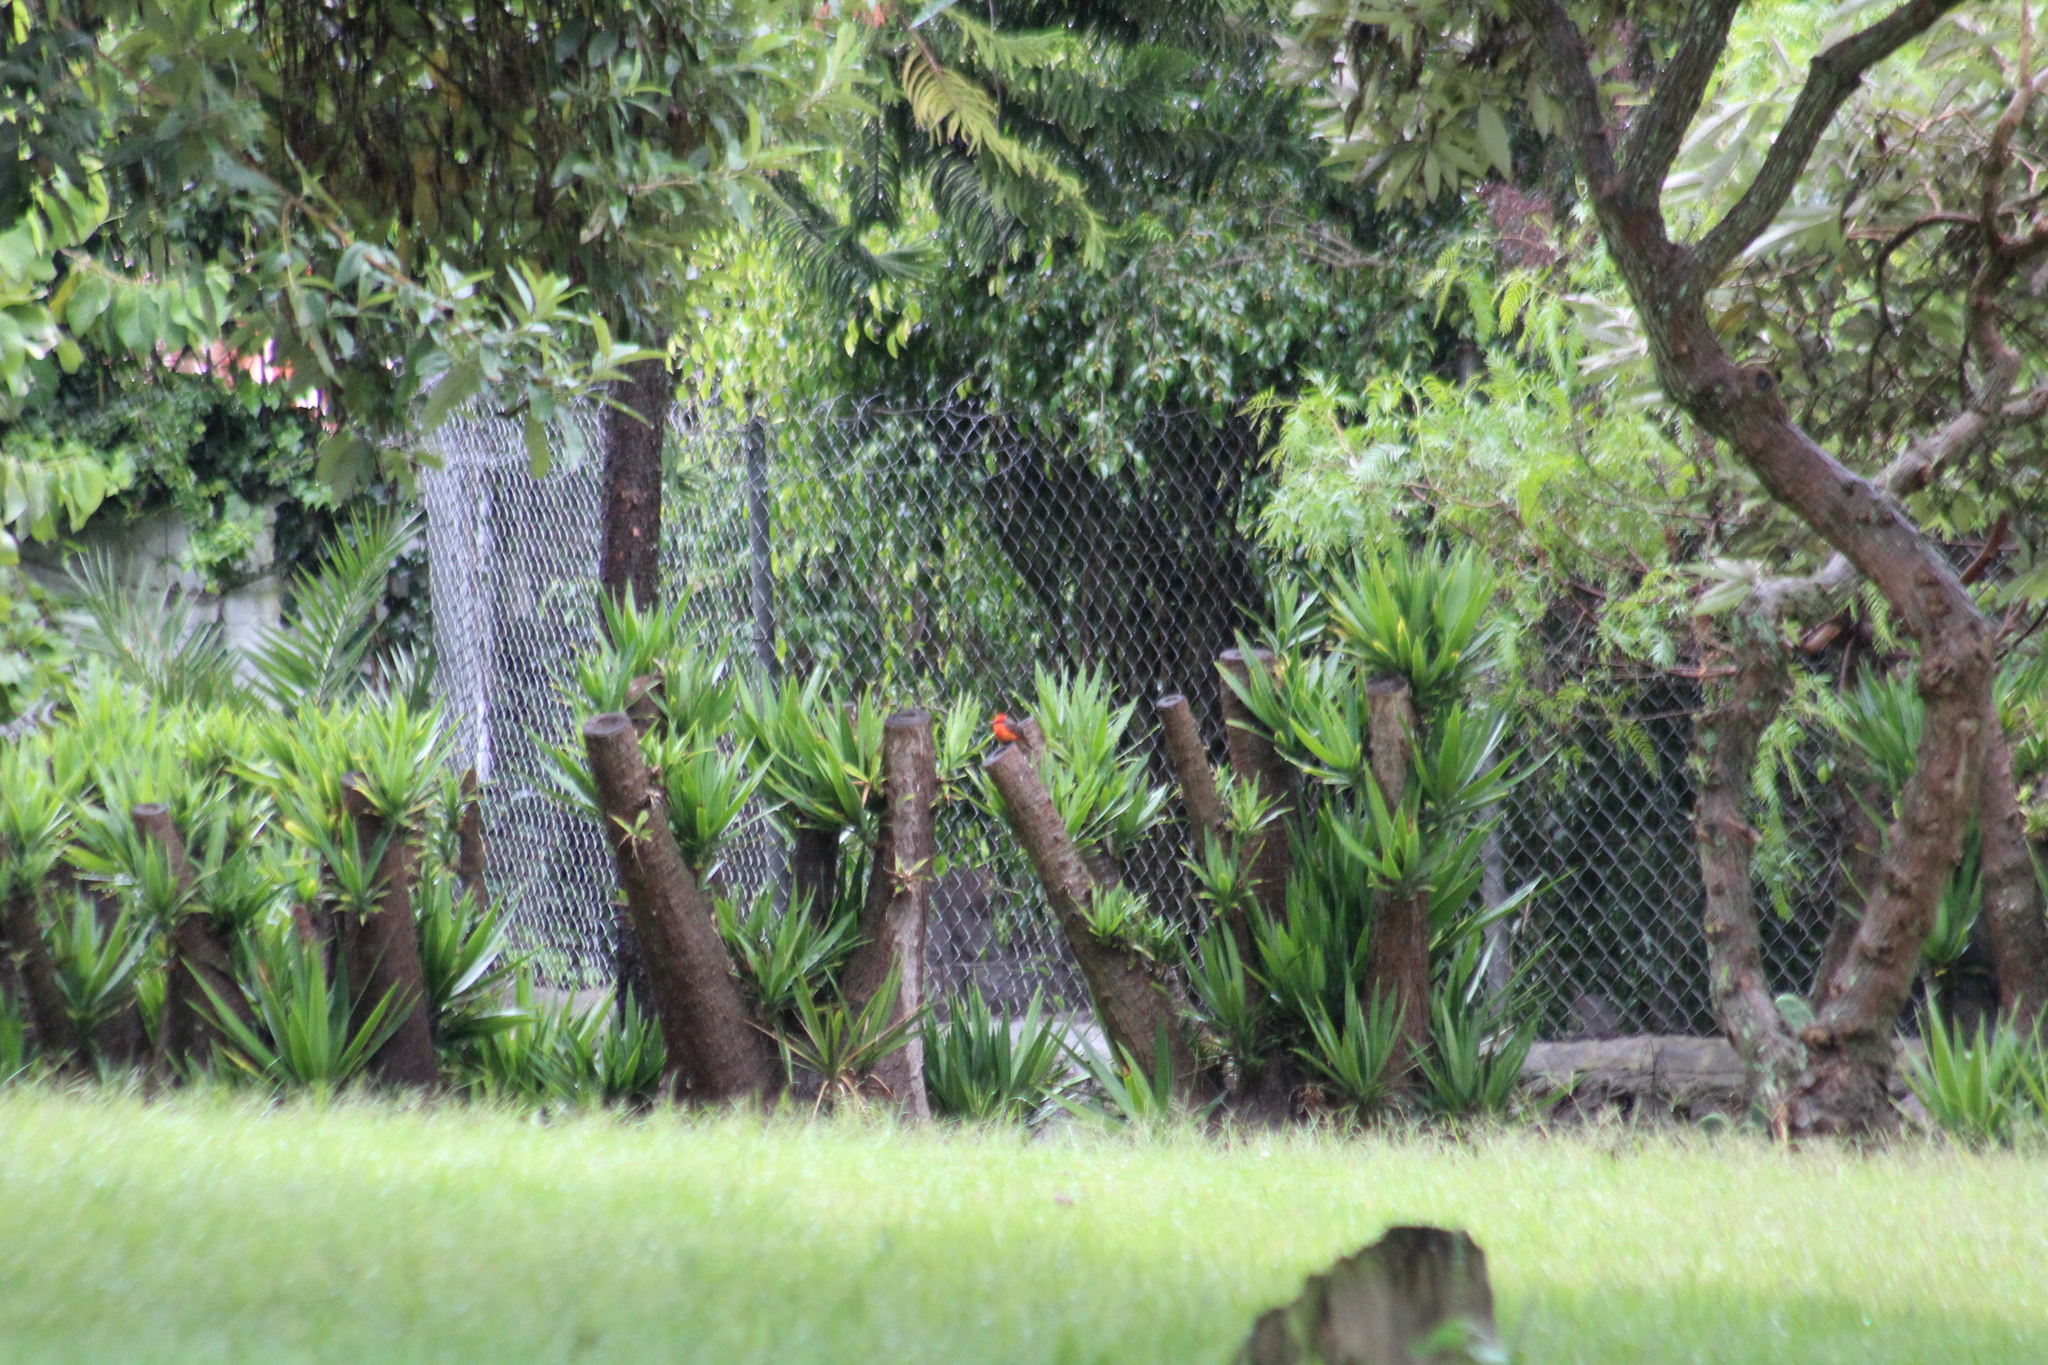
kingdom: Animalia
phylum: Chordata
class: Aves
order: Passeriformes
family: Tyrannidae
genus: Pyrocephalus
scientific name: Pyrocephalus rubinus
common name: Vermilion flycatcher
